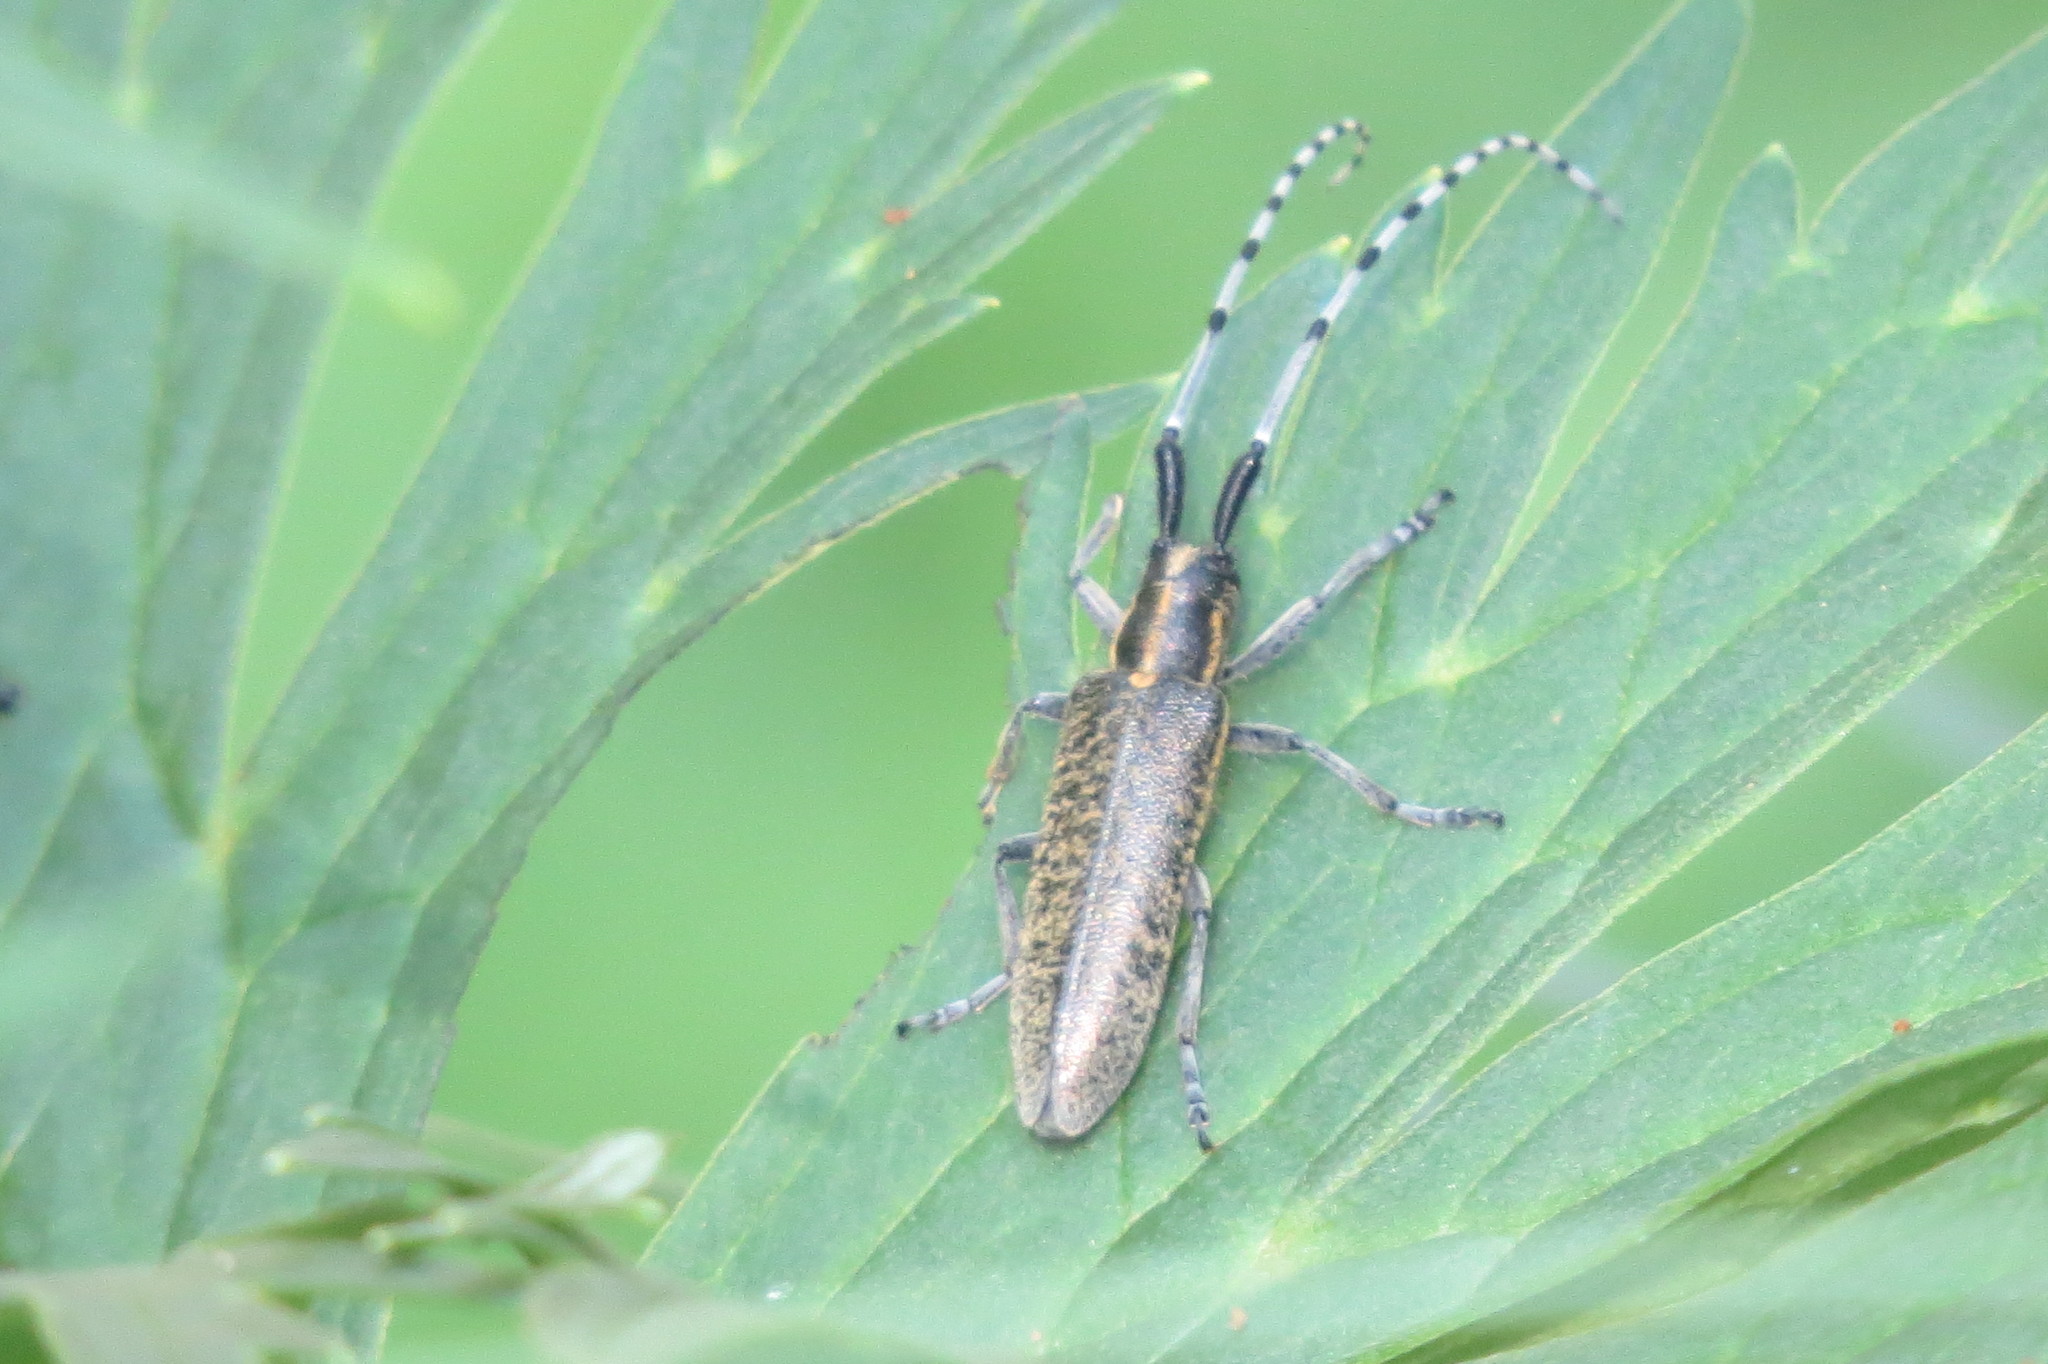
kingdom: Animalia
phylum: Arthropoda
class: Insecta
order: Coleoptera
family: Cerambycidae
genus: Agapanthia
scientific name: Agapanthia villosoviridescens
